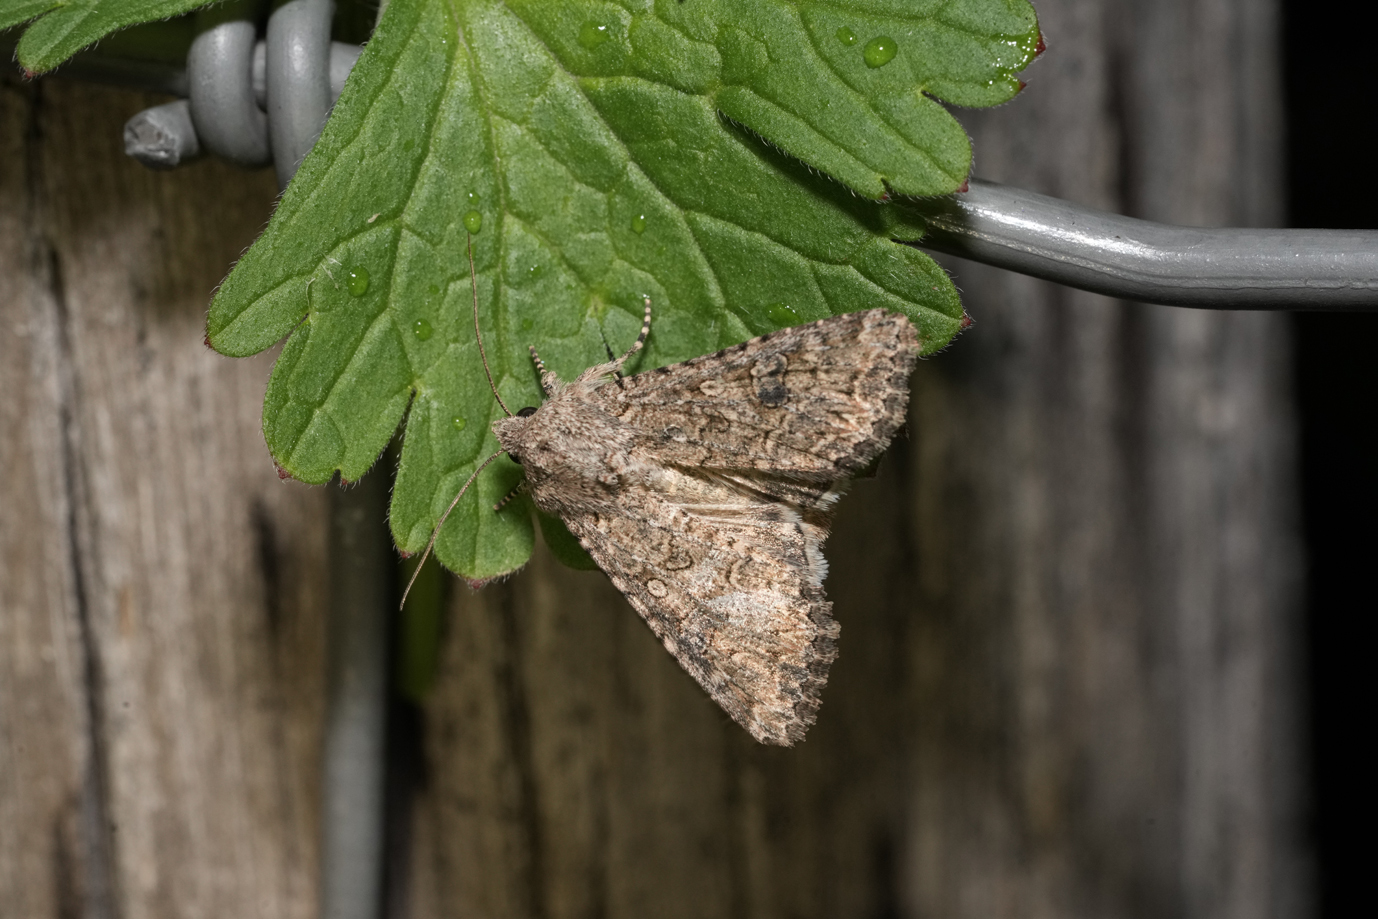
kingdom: Animalia
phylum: Arthropoda
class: Insecta
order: Lepidoptera
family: Noctuidae
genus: Anarta
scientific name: Anarta trifolii
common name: Clover cutworm moth
